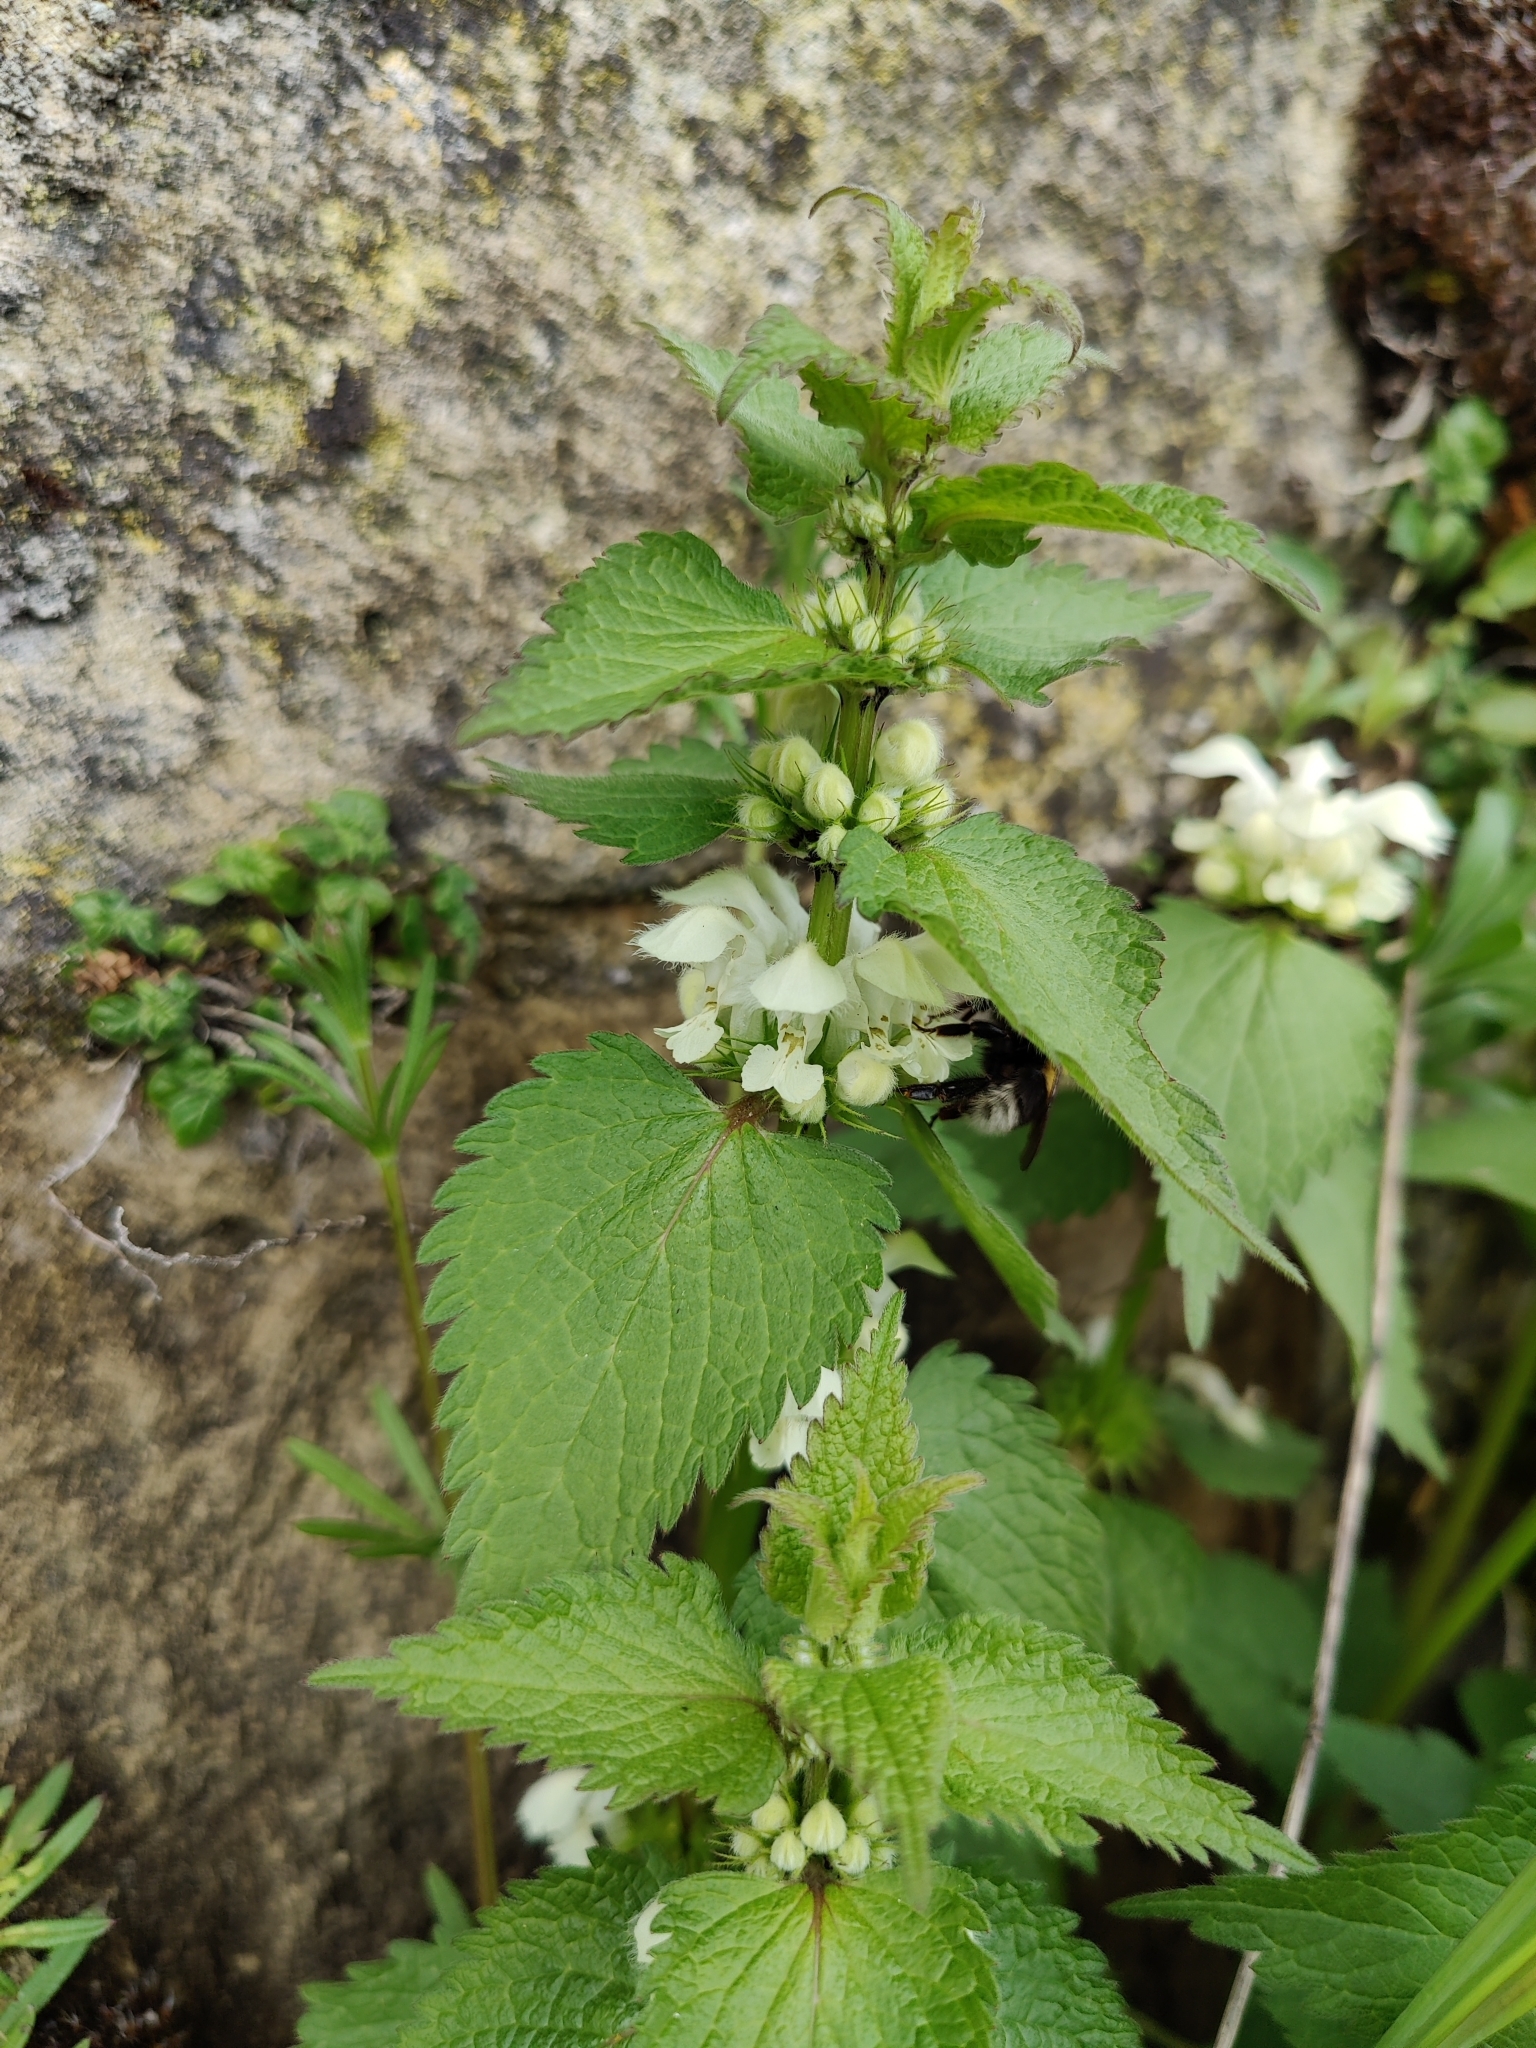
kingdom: Plantae
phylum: Tracheophyta
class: Magnoliopsida
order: Lamiales
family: Lamiaceae
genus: Lamium
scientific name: Lamium album
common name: White dead-nettle
